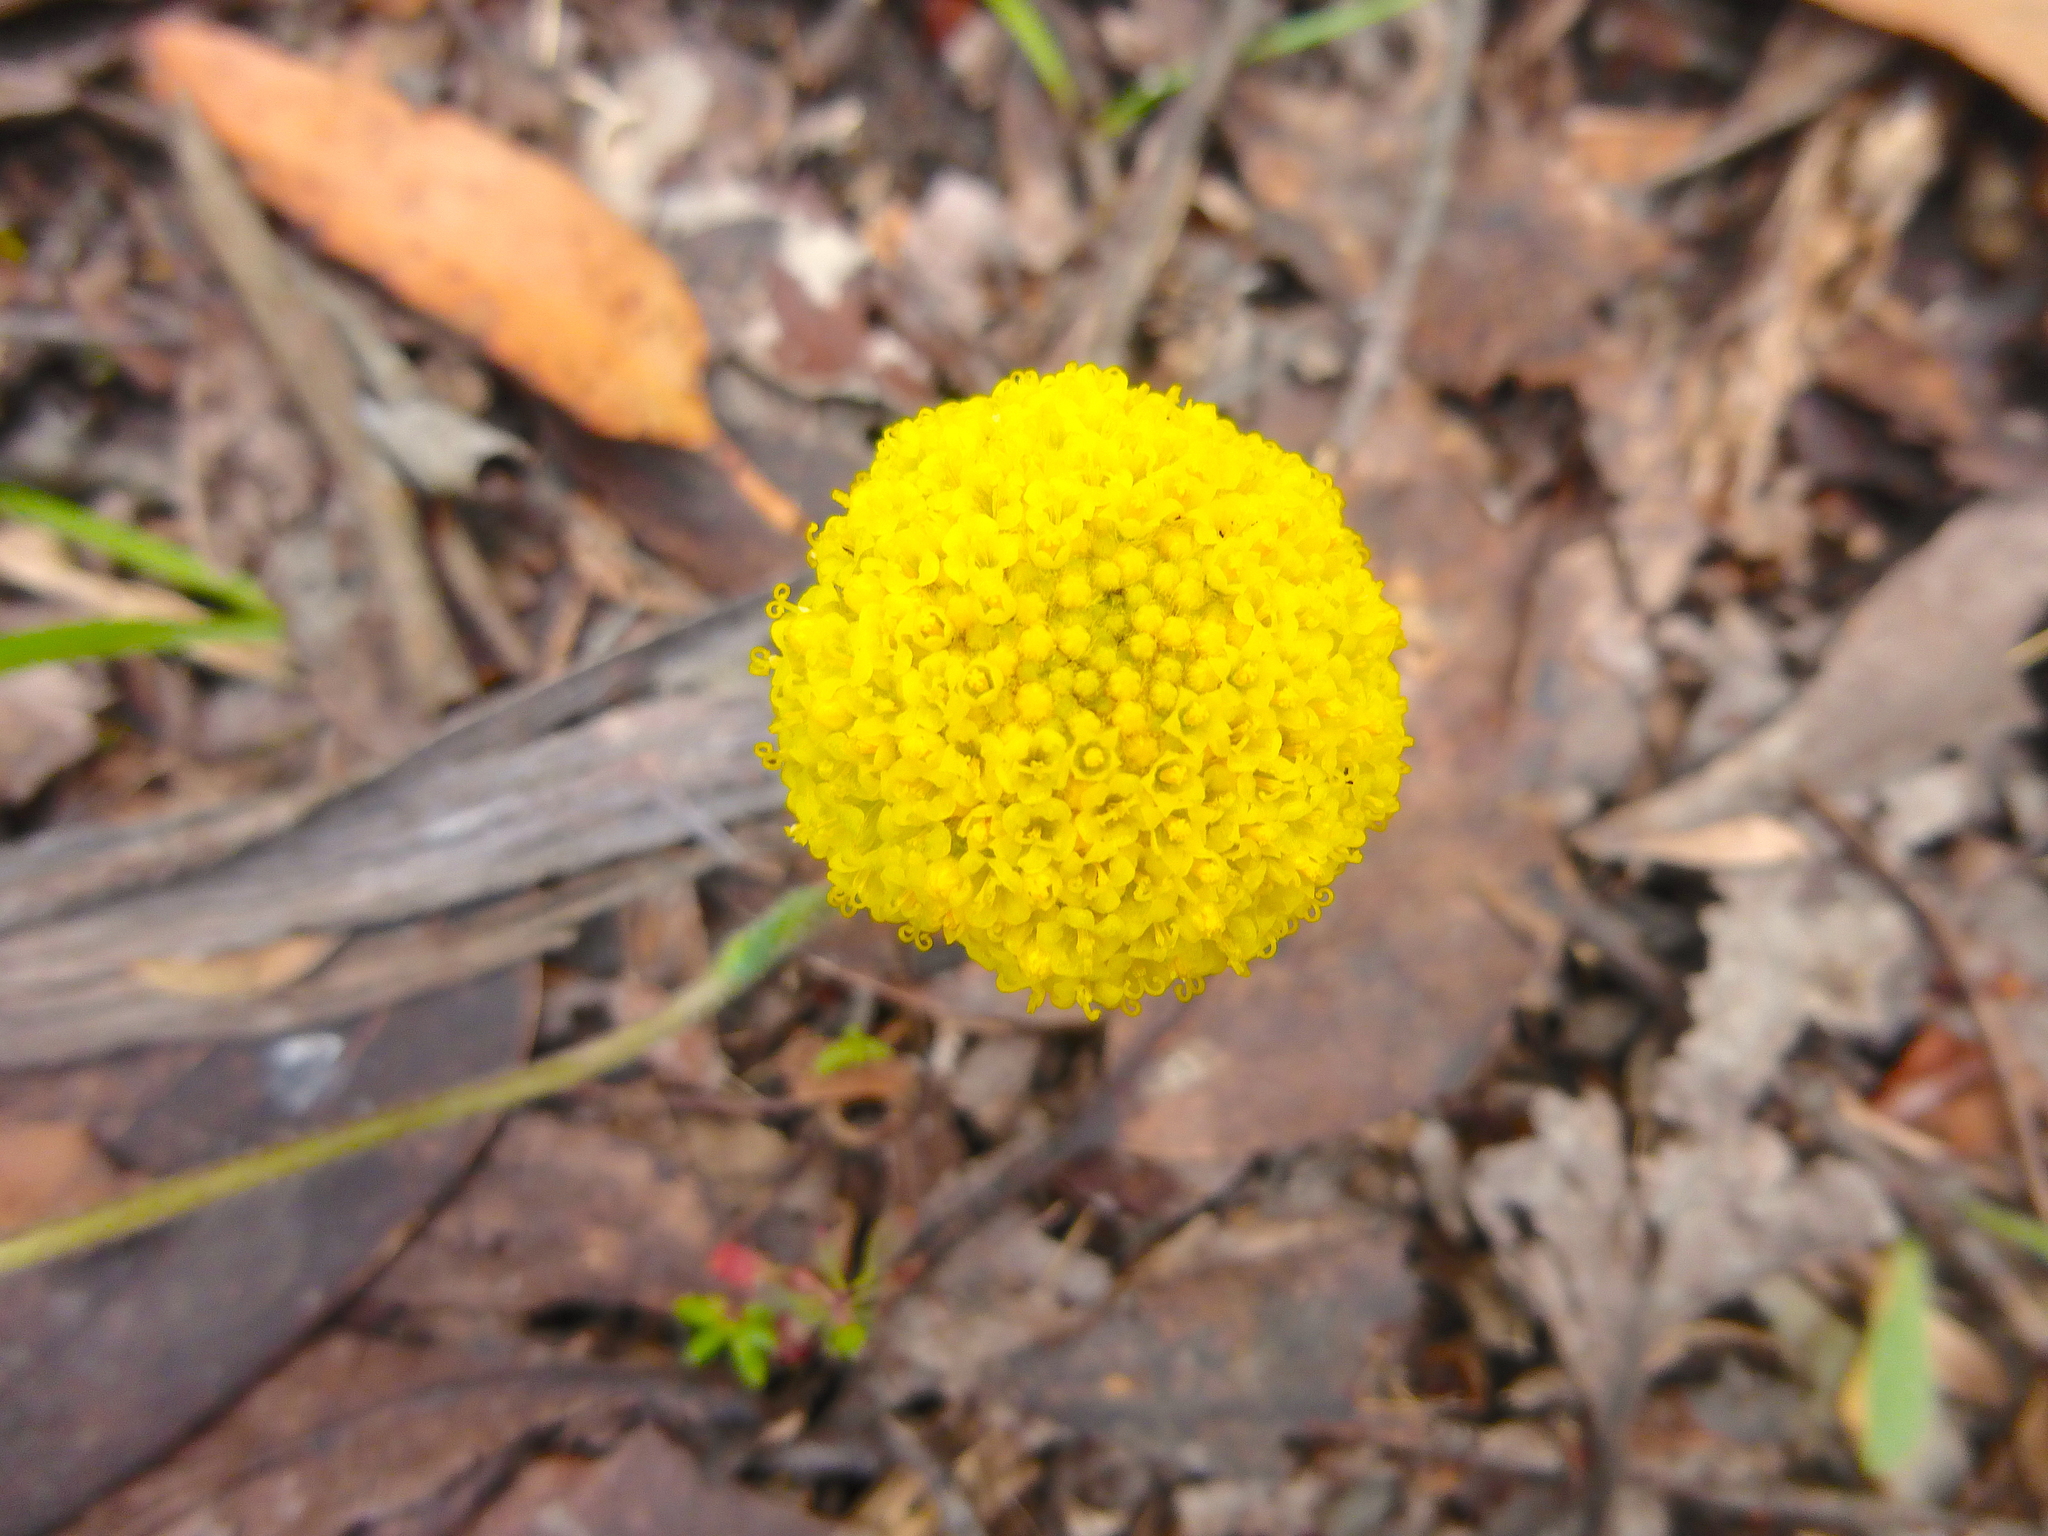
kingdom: Plantae
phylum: Tracheophyta
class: Magnoliopsida
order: Asterales
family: Asteraceae
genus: Craspedia
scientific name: Craspedia variabilis
